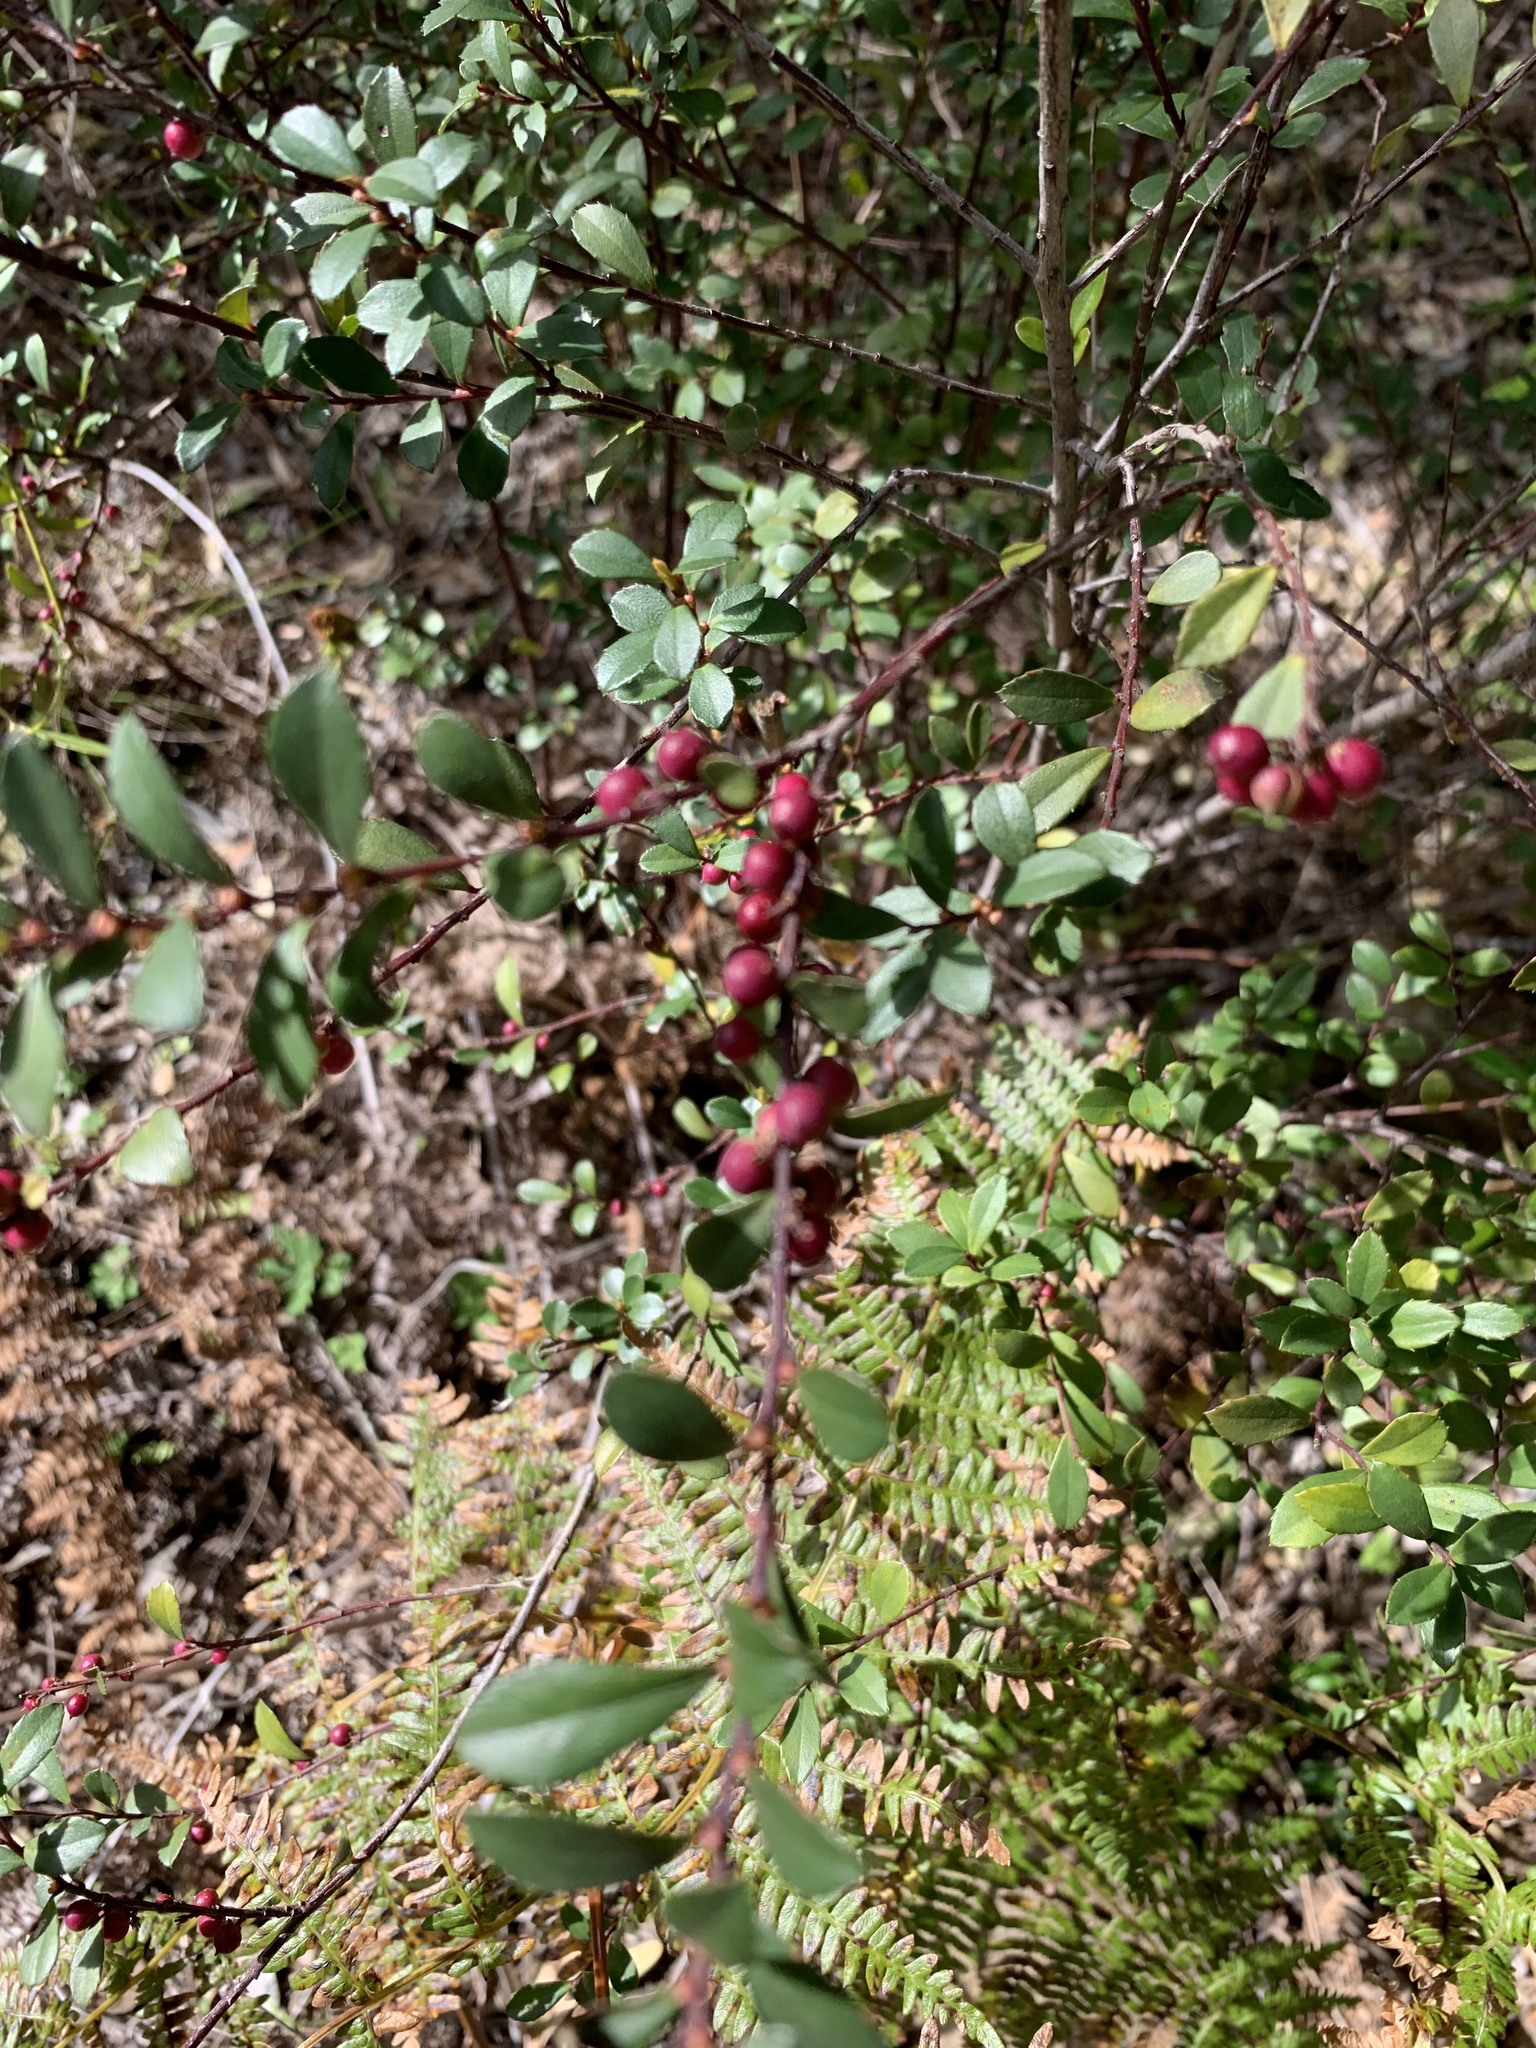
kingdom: Plantae
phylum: Tracheophyta
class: Magnoliopsida
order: Ericales
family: Primulaceae
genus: Myrsine
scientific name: Myrsine africana
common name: African-boxwood
